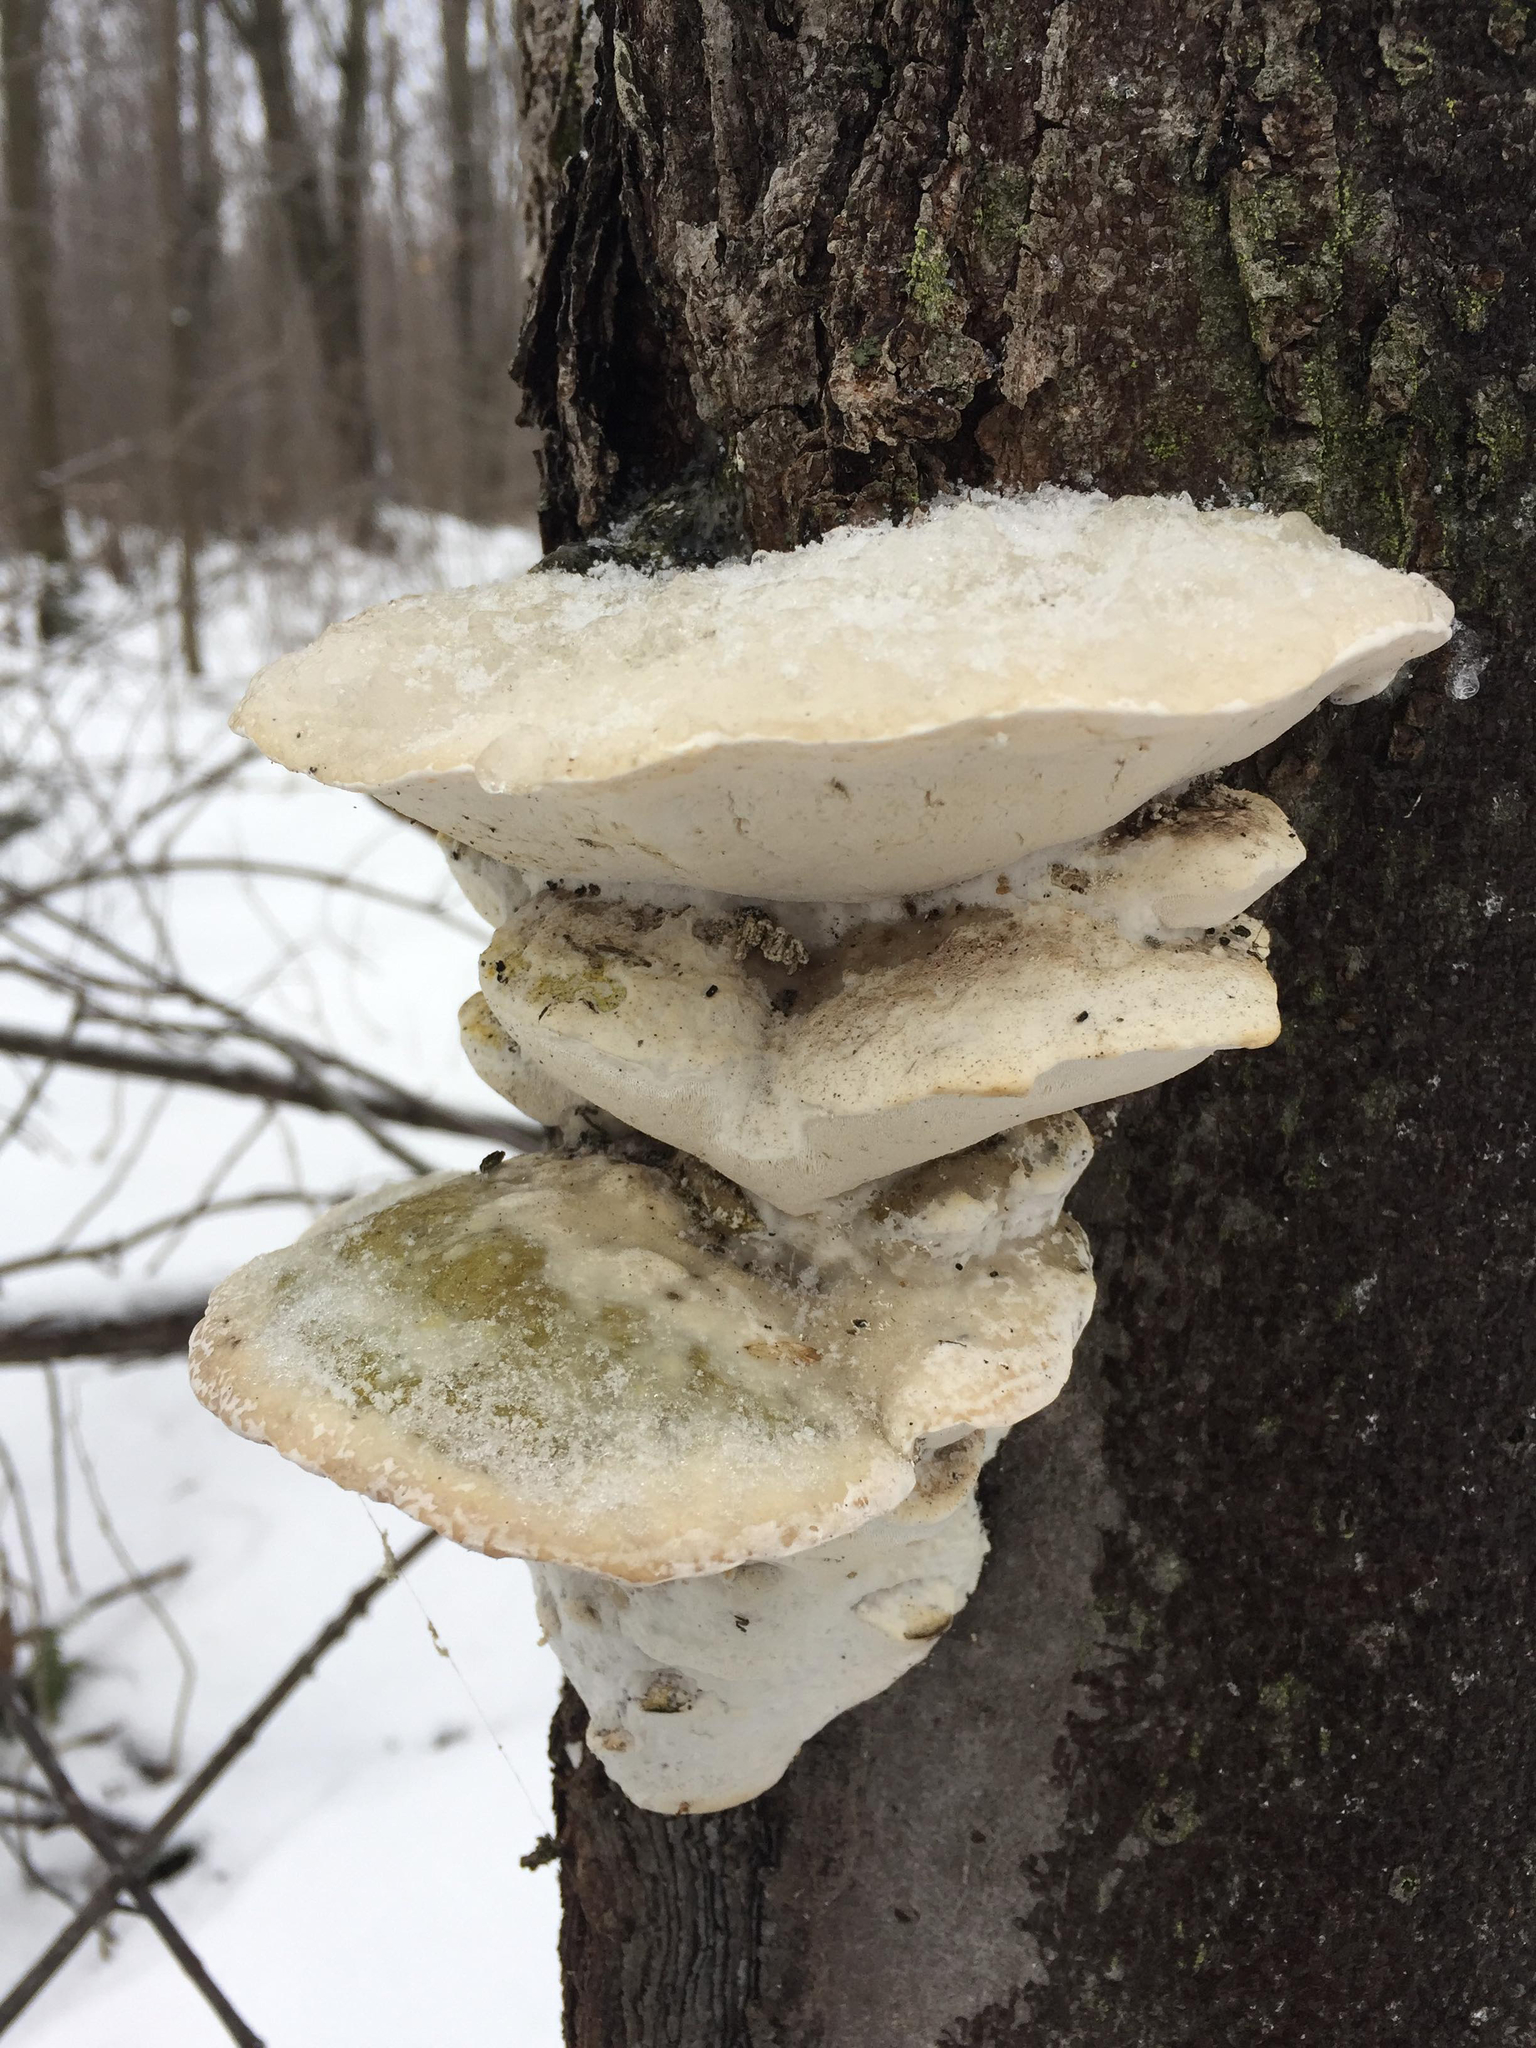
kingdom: Fungi
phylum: Basidiomycota
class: Agaricomycetes
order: Hymenochaetales
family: Oxyporaceae
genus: Oxyporus
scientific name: Oxyporus populinus
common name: Poplar bracket
